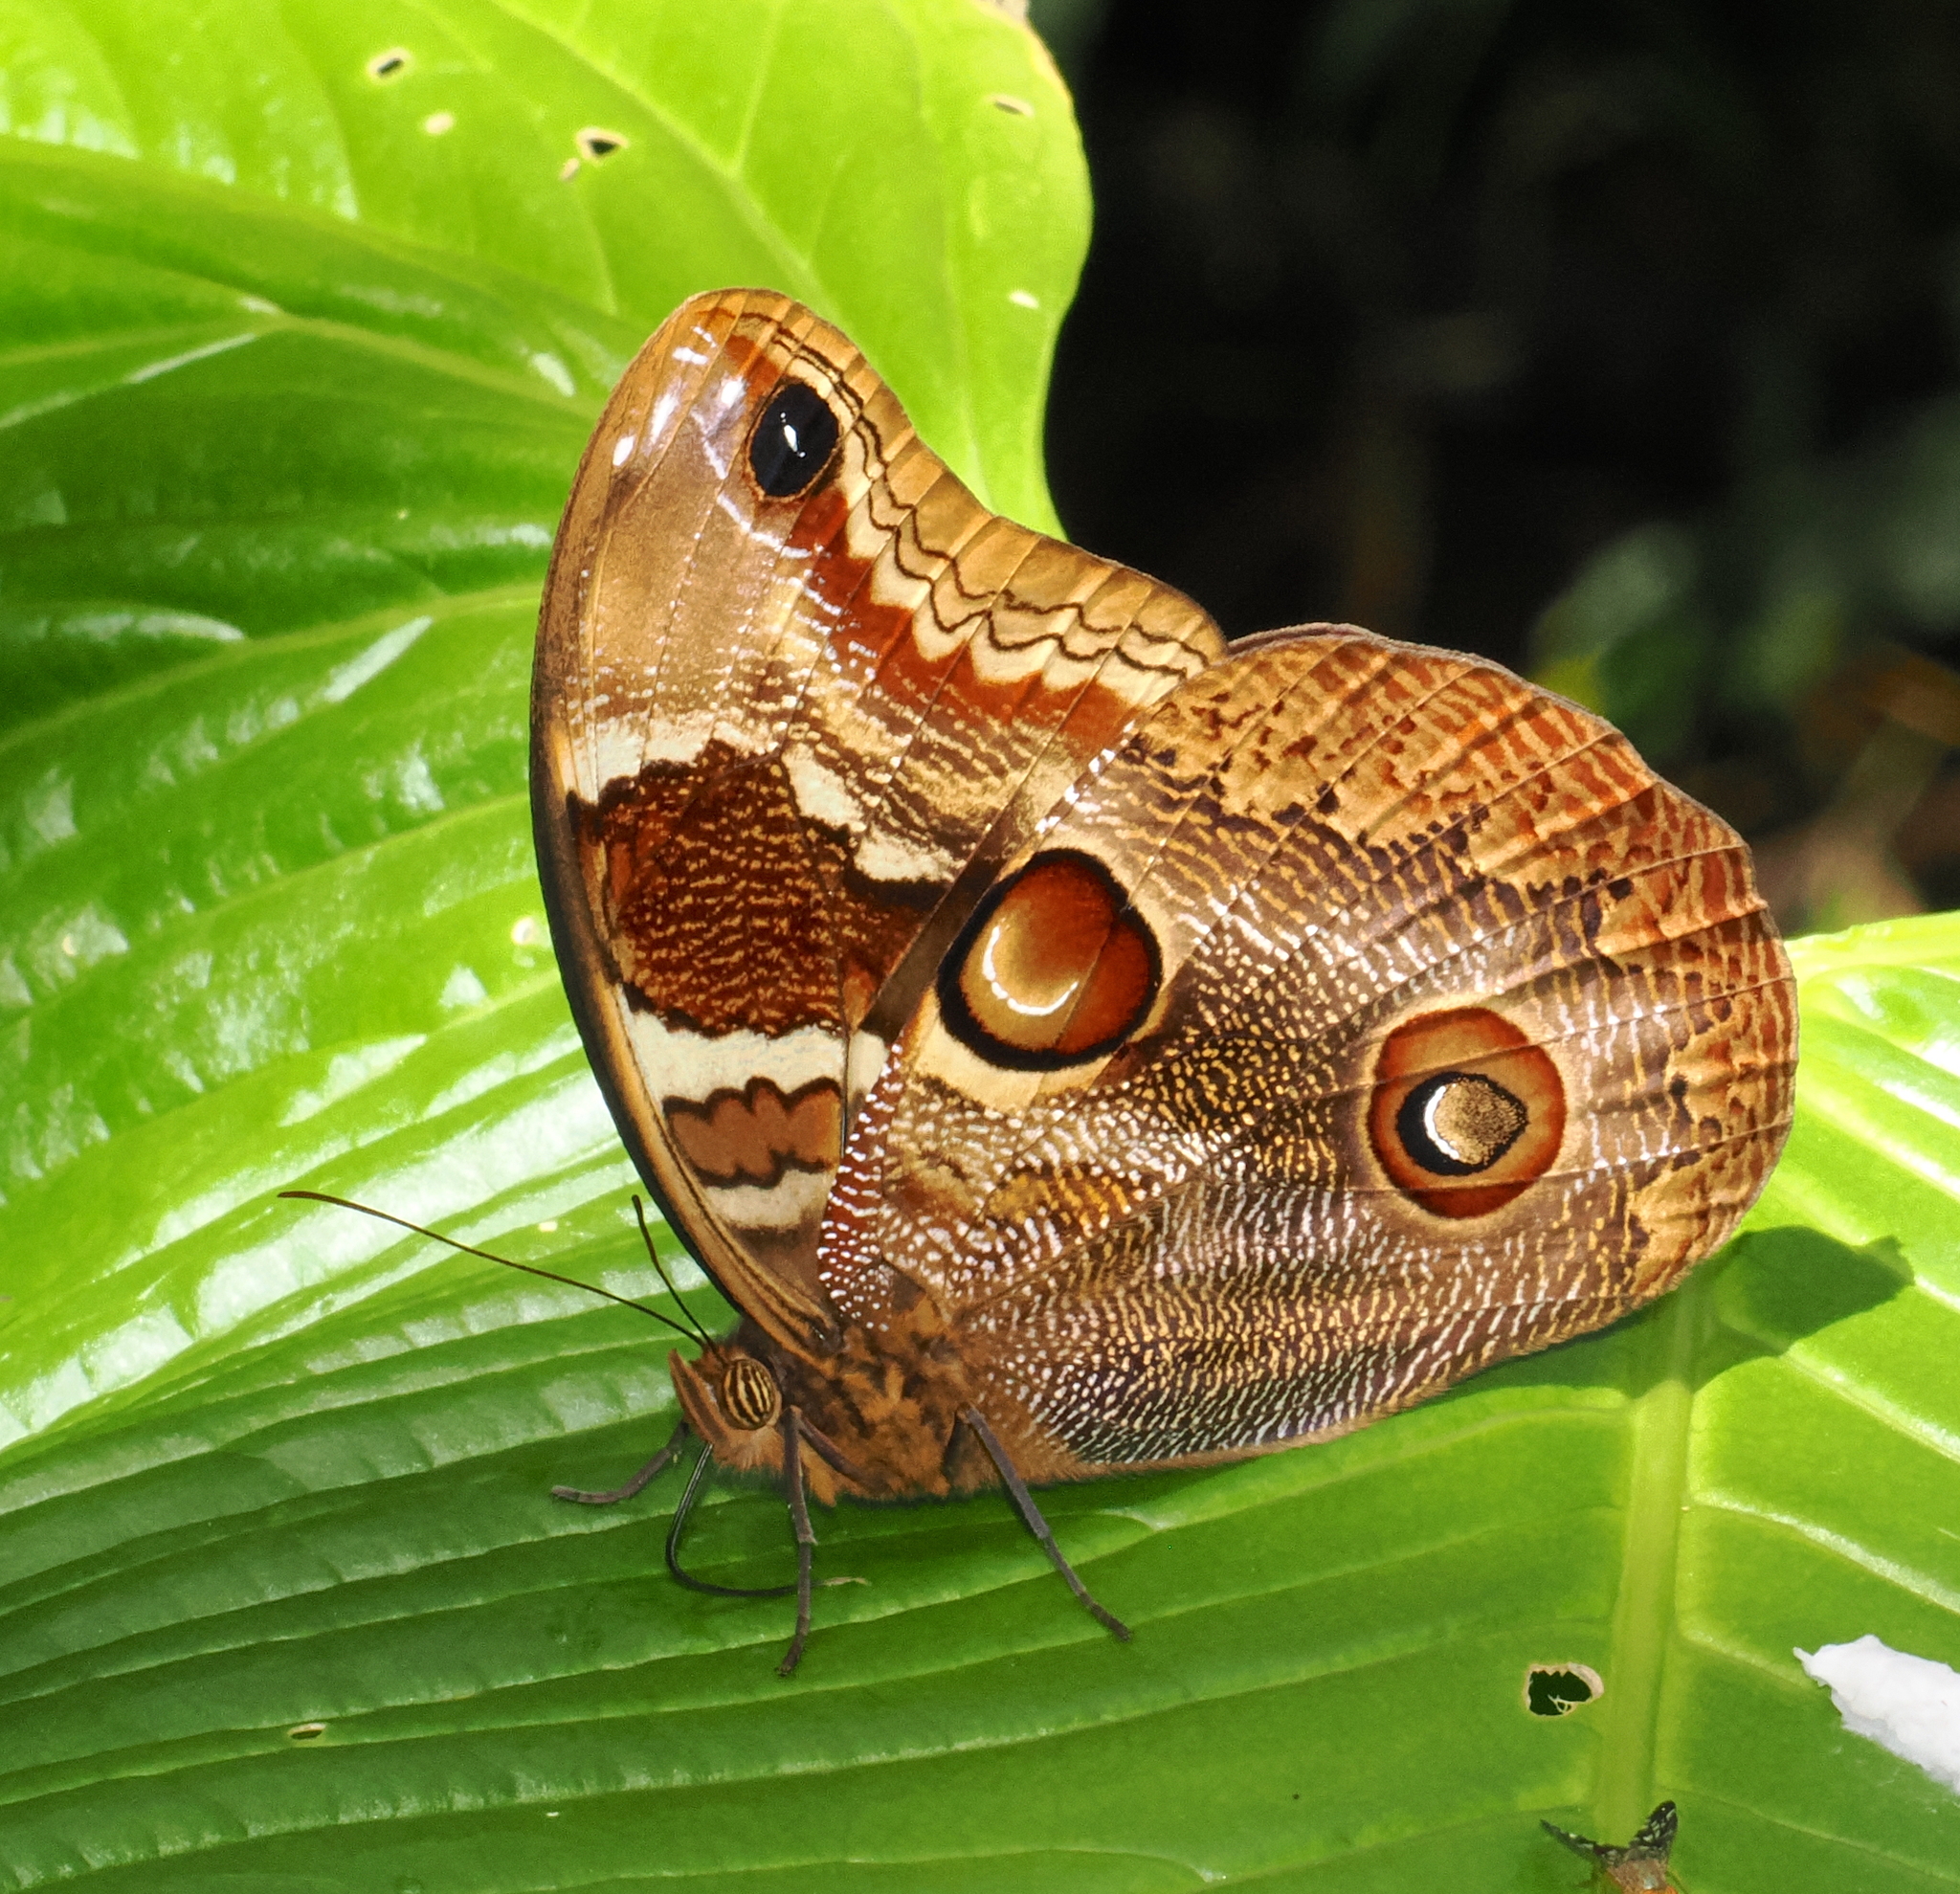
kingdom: Animalia
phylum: Arthropoda
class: Insecta
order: Lepidoptera
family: Nymphalidae
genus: Catoblepia
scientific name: Catoblepia orgetorix
